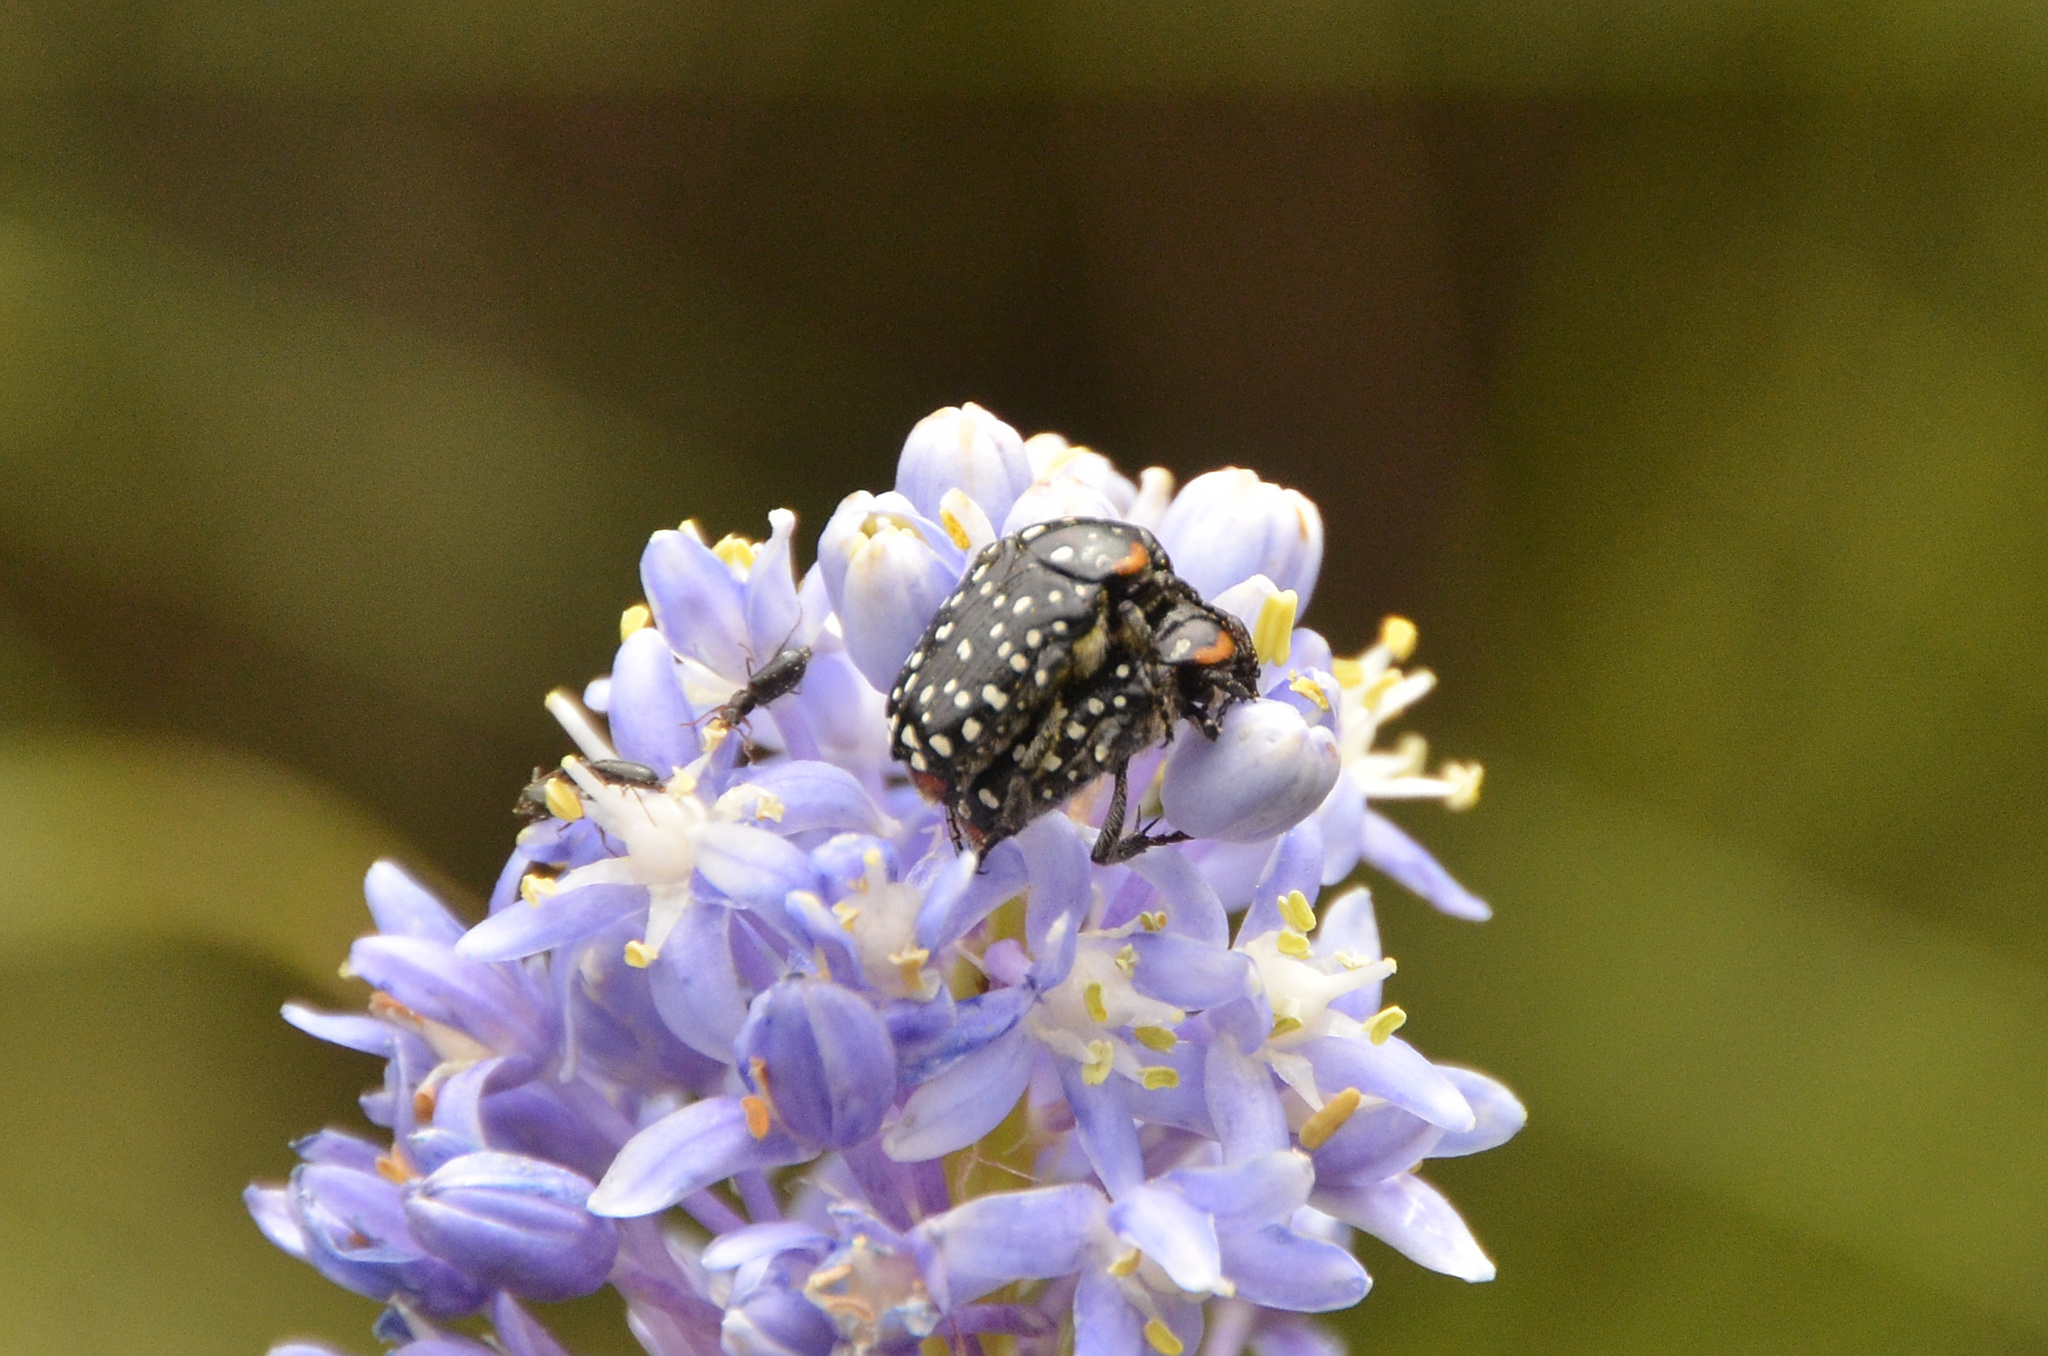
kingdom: Animalia
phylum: Arthropoda
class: Insecta
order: Coleoptera
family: Scarabaeidae
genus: Oxythyrea
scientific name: Oxythyrea
